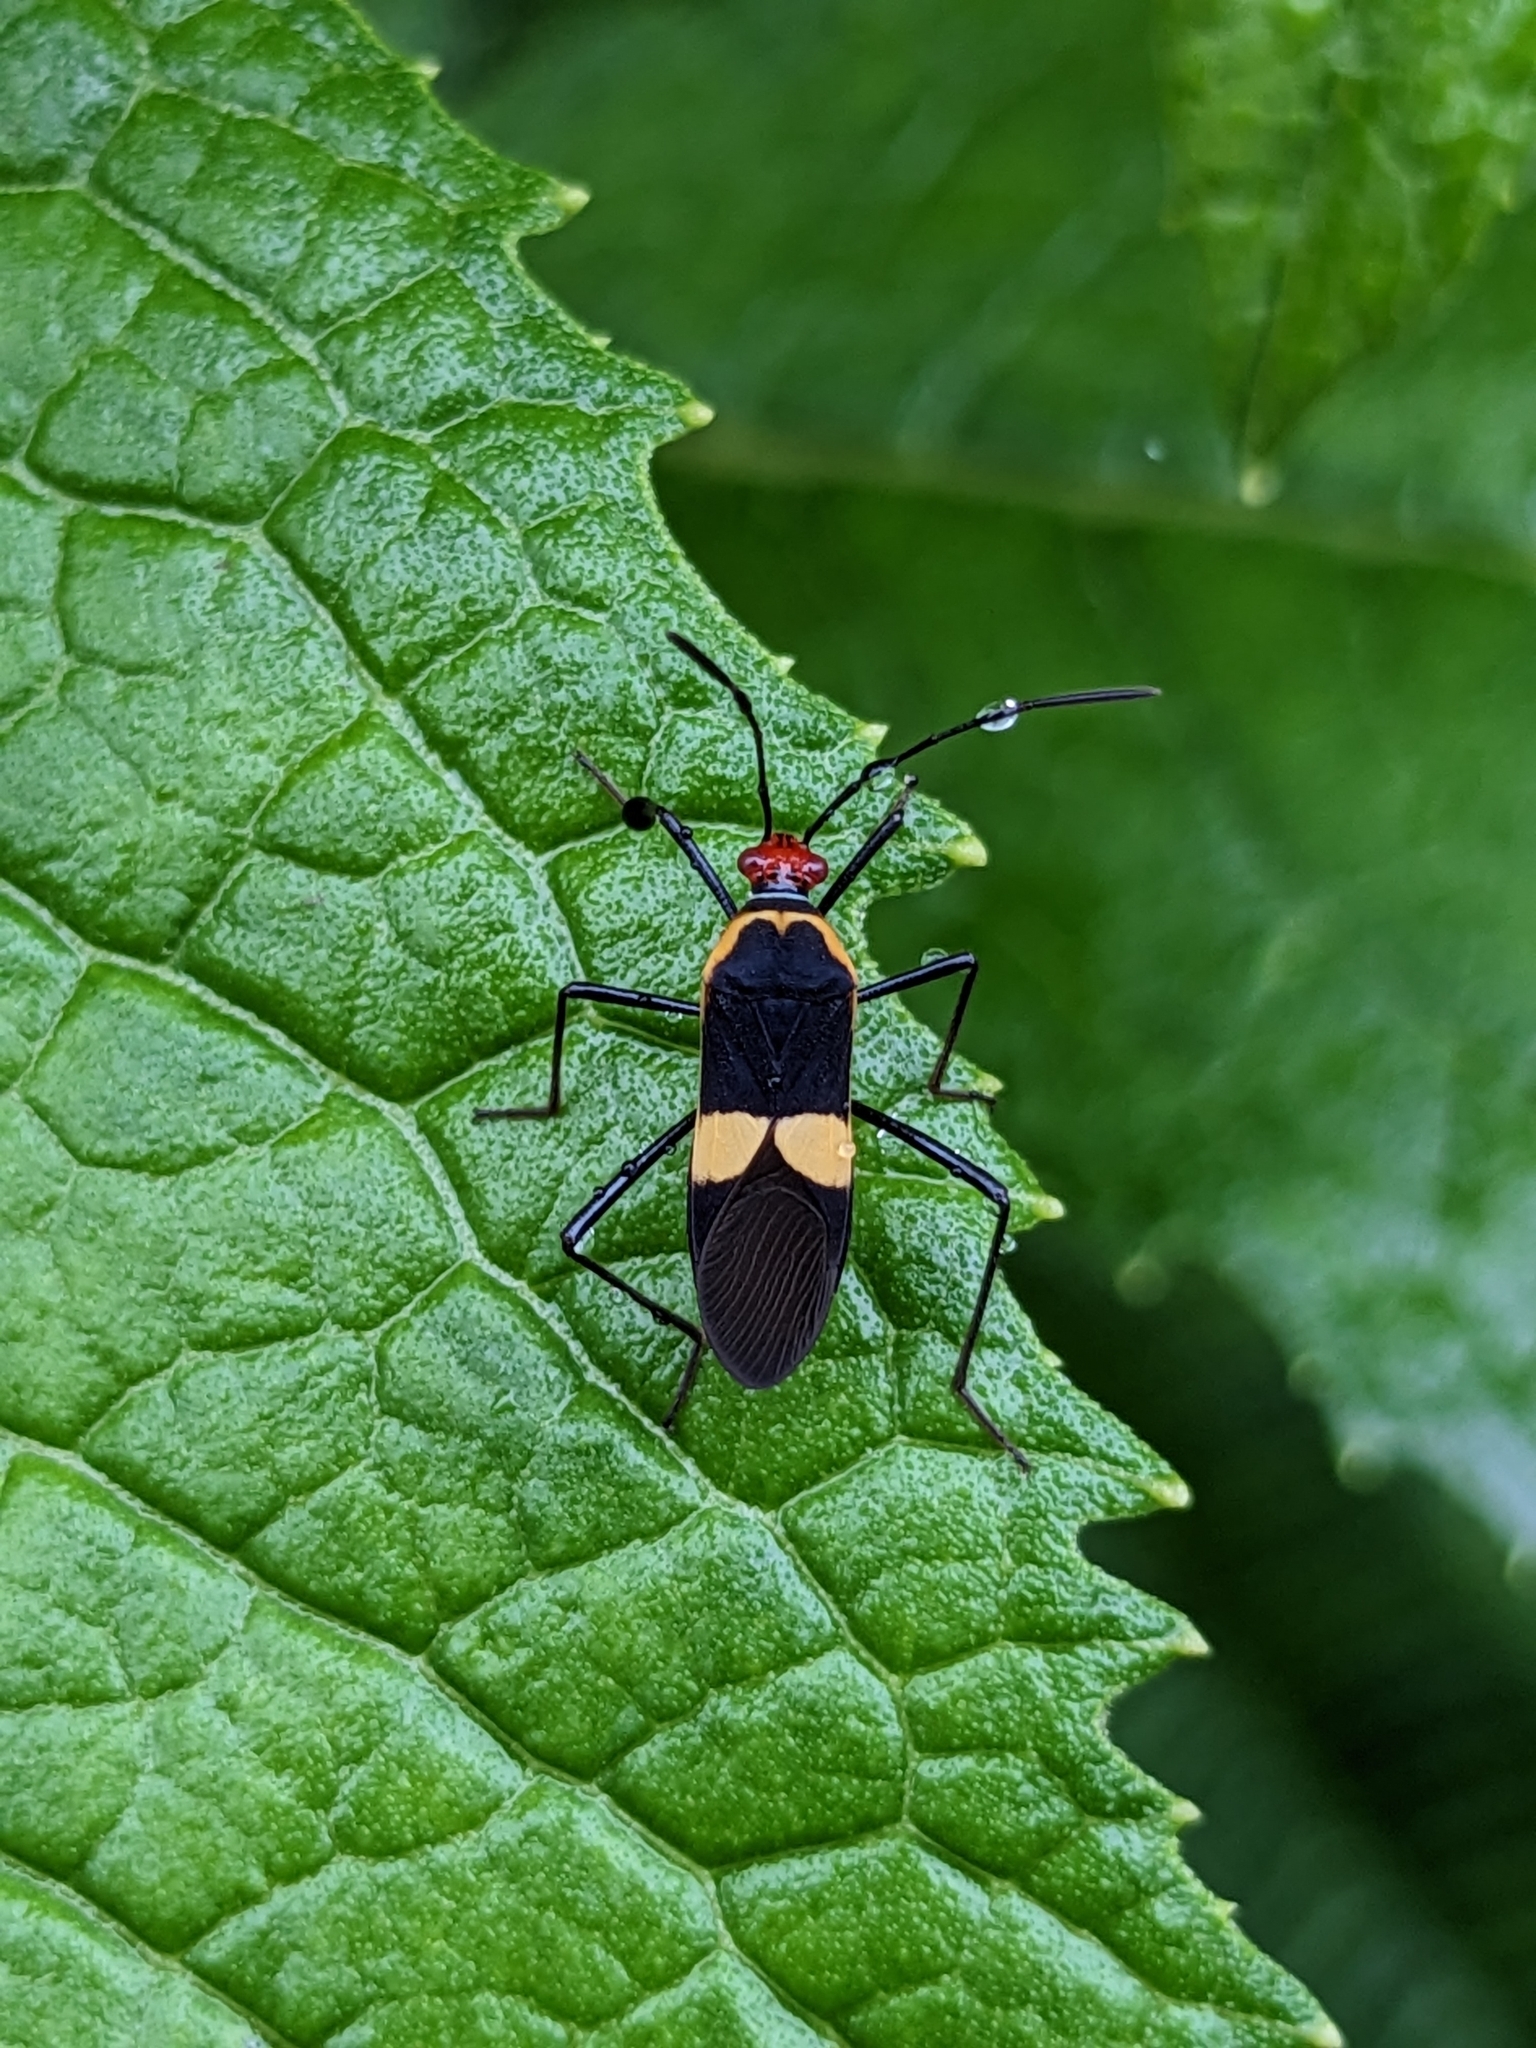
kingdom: Animalia
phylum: Arthropoda
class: Insecta
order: Hemiptera
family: Coreidae
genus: Hypselonotus
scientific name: Hypselonotus interruptus
